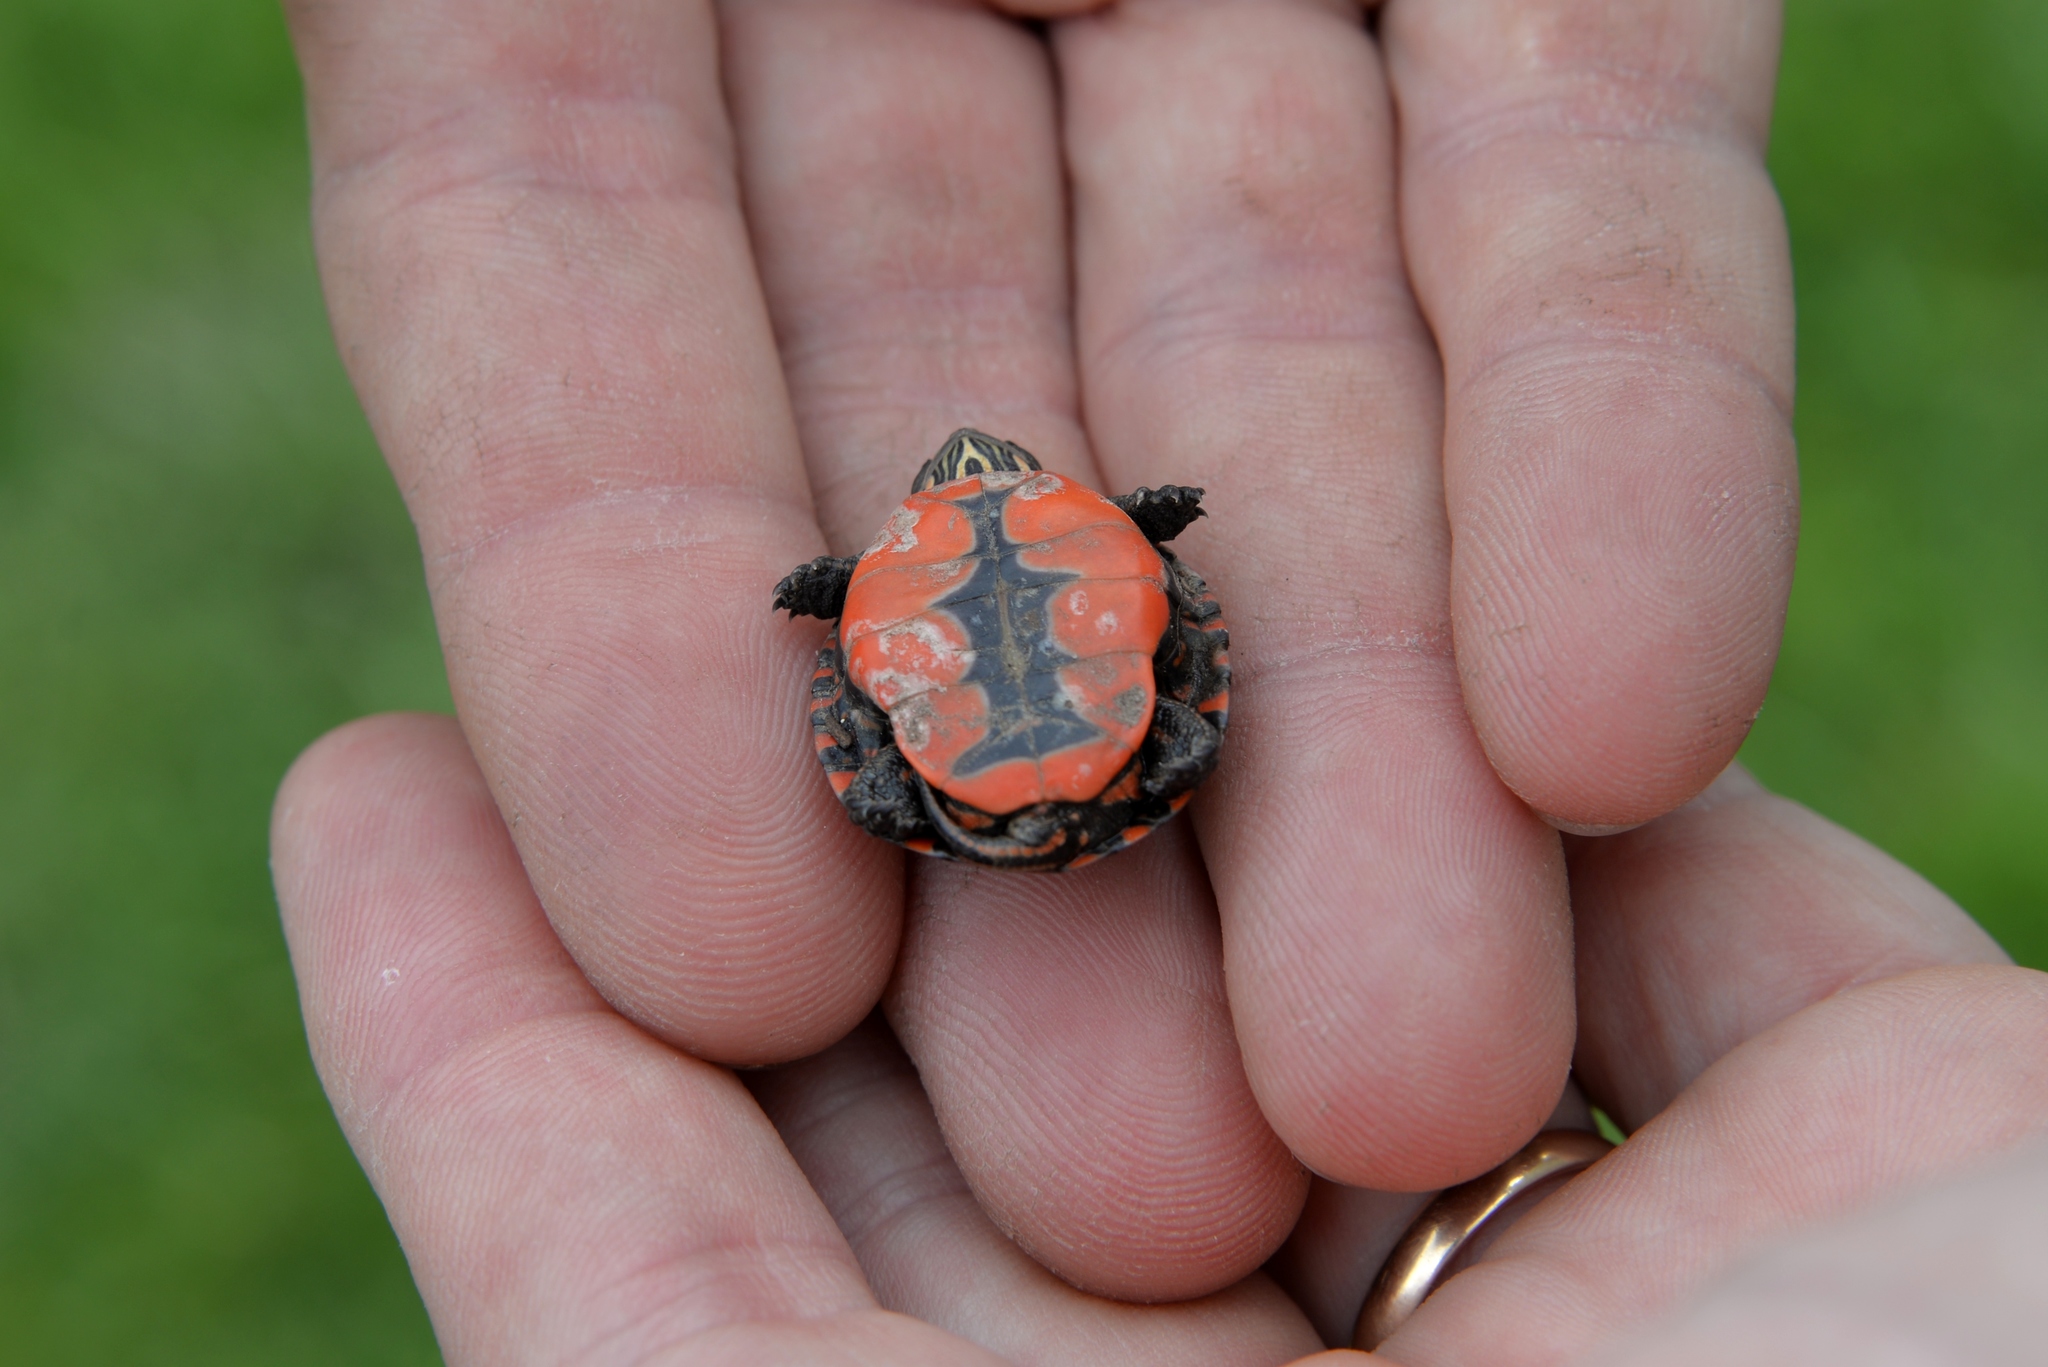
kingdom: Animalia
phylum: Chordata
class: Testudines
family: Emydidae
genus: Chrysemys
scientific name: Chrysemys picta
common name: Painted turtle
